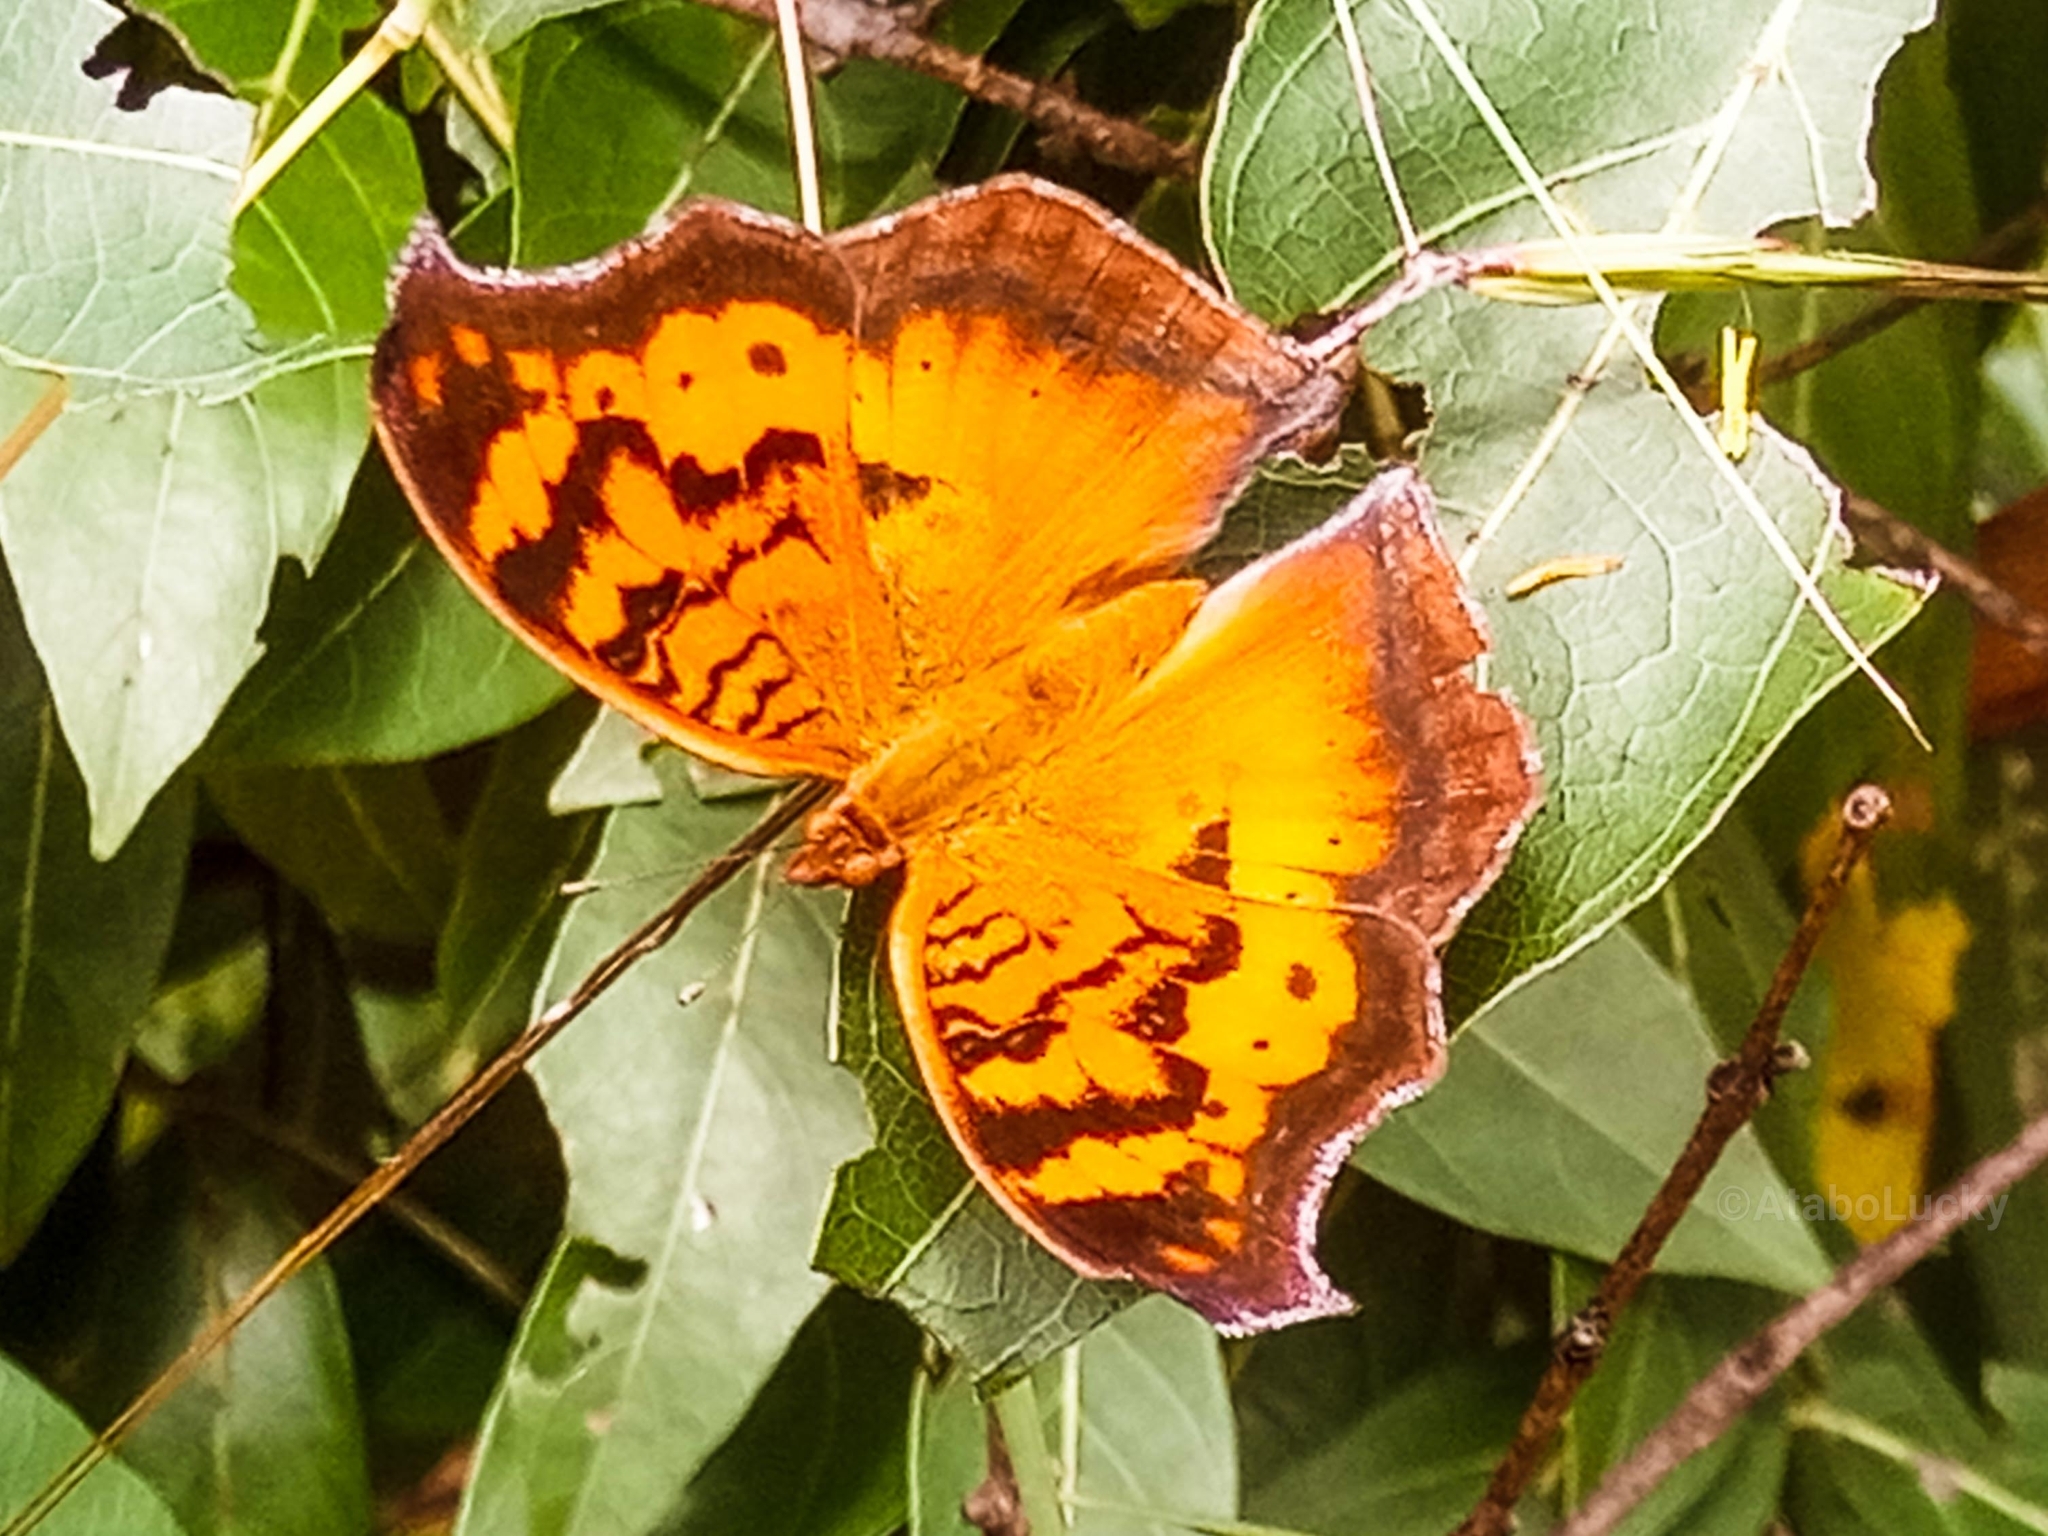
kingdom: Animalia
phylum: Arthropoda
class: Insecta
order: Lepidoptera
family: Nymphalidae
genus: Junonia
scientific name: Junonia antilope
